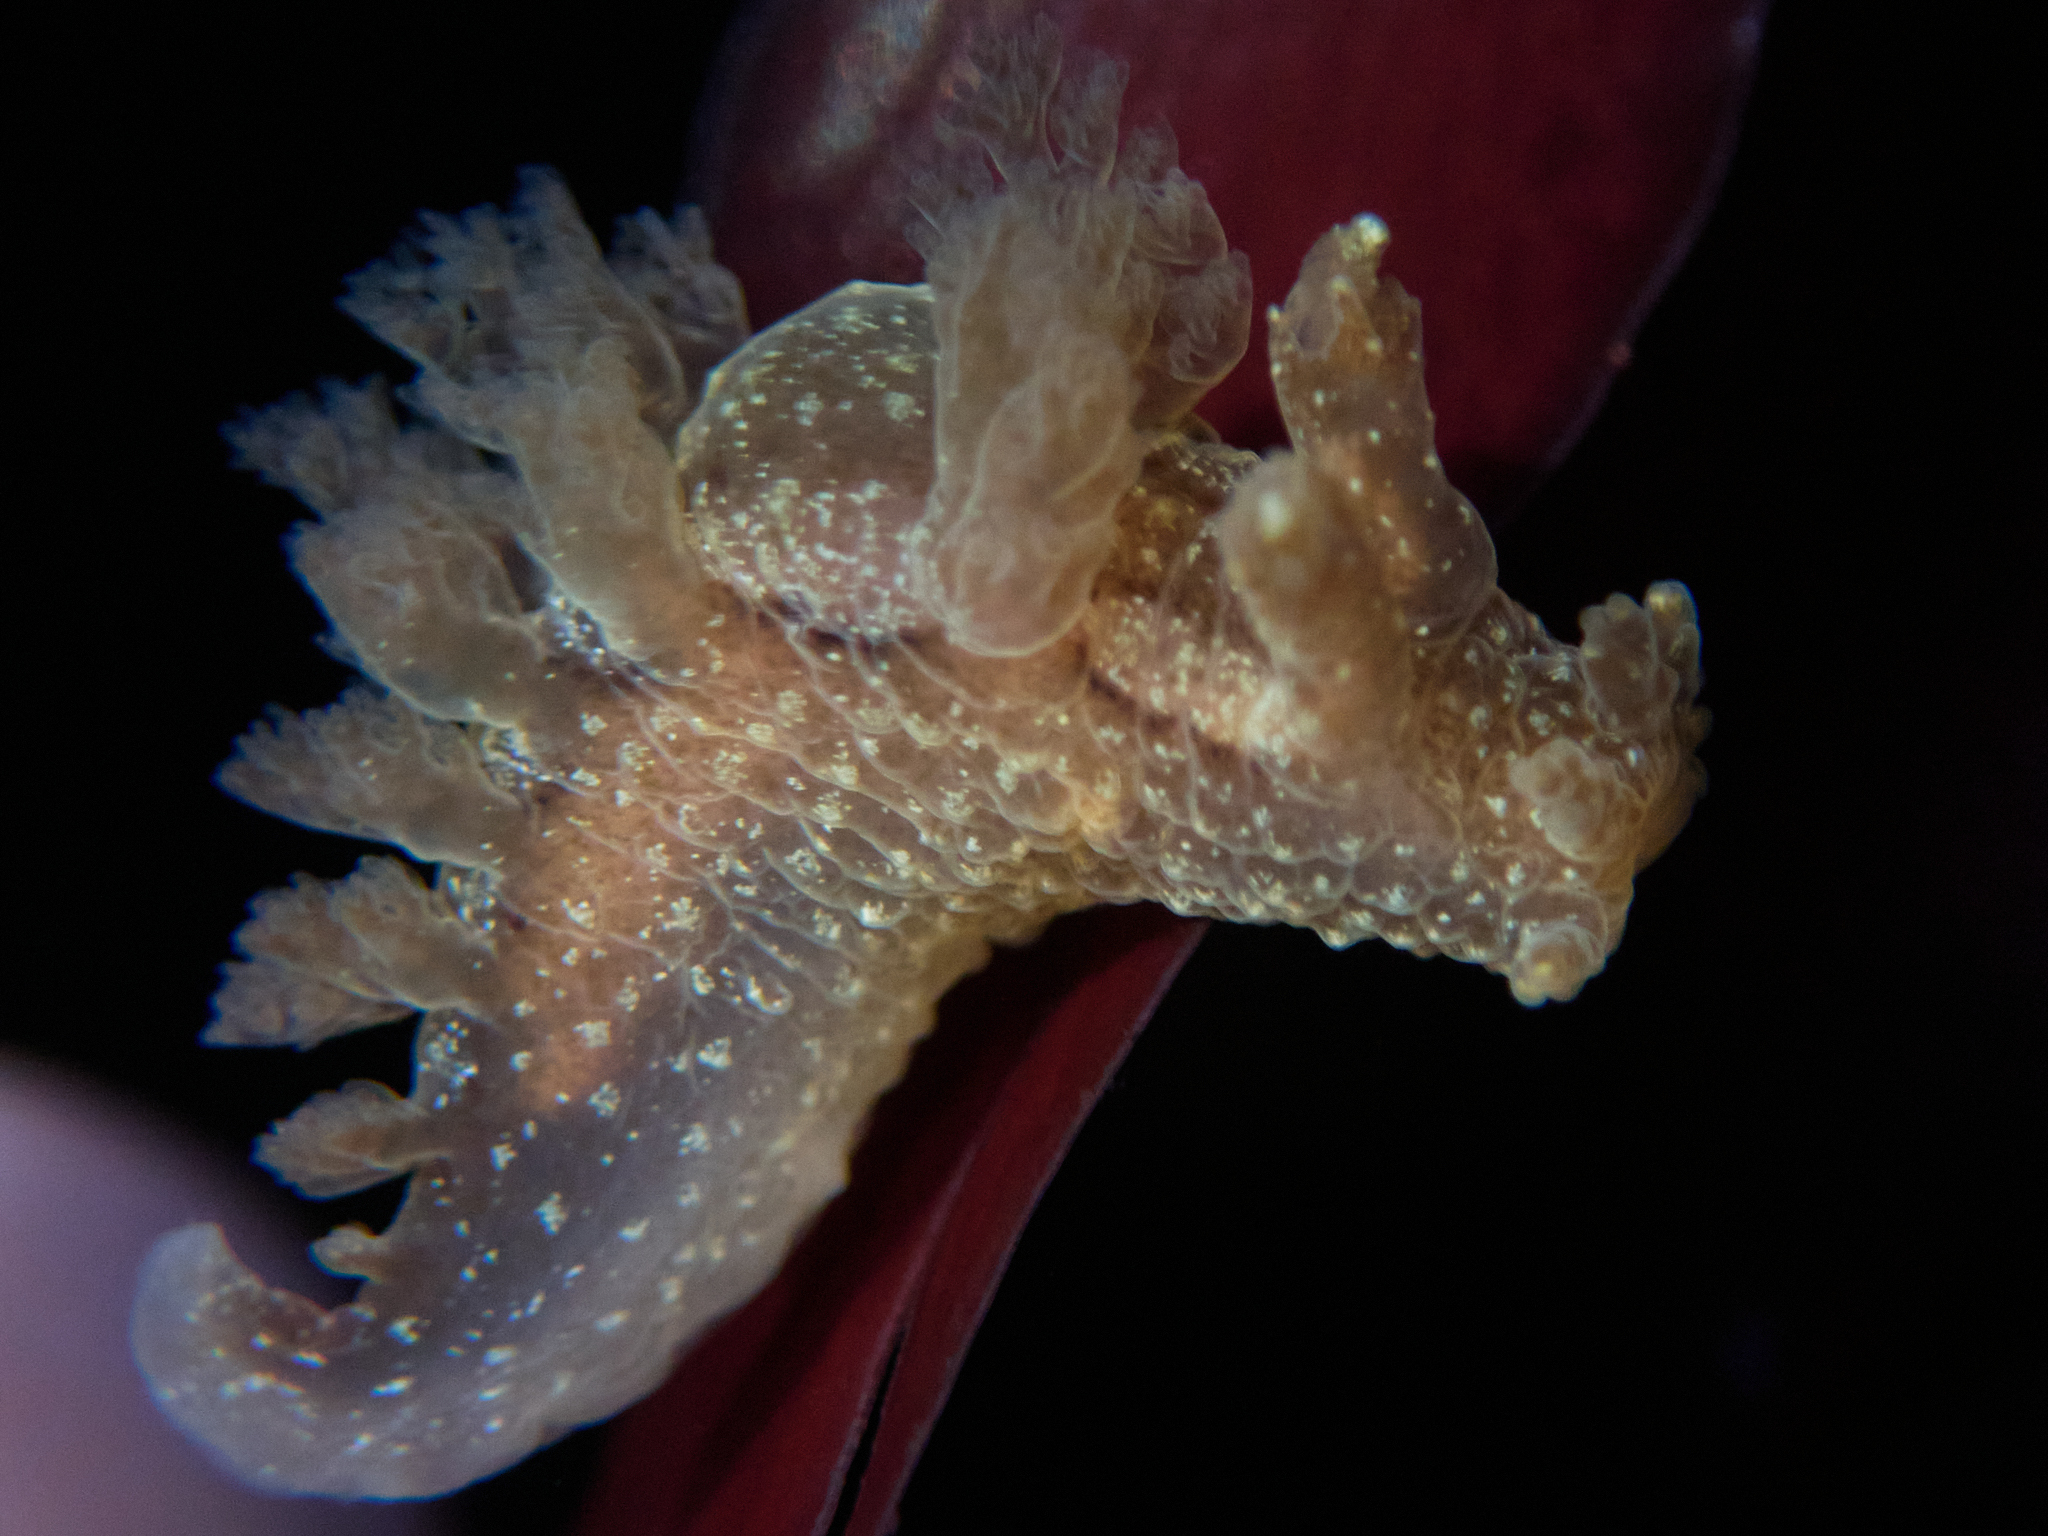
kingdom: Animalia
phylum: Mollusca
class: Gastropoda
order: Nudibranchia
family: Dendronotidae
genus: Dendronotus
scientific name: Dendronotus subramosus
